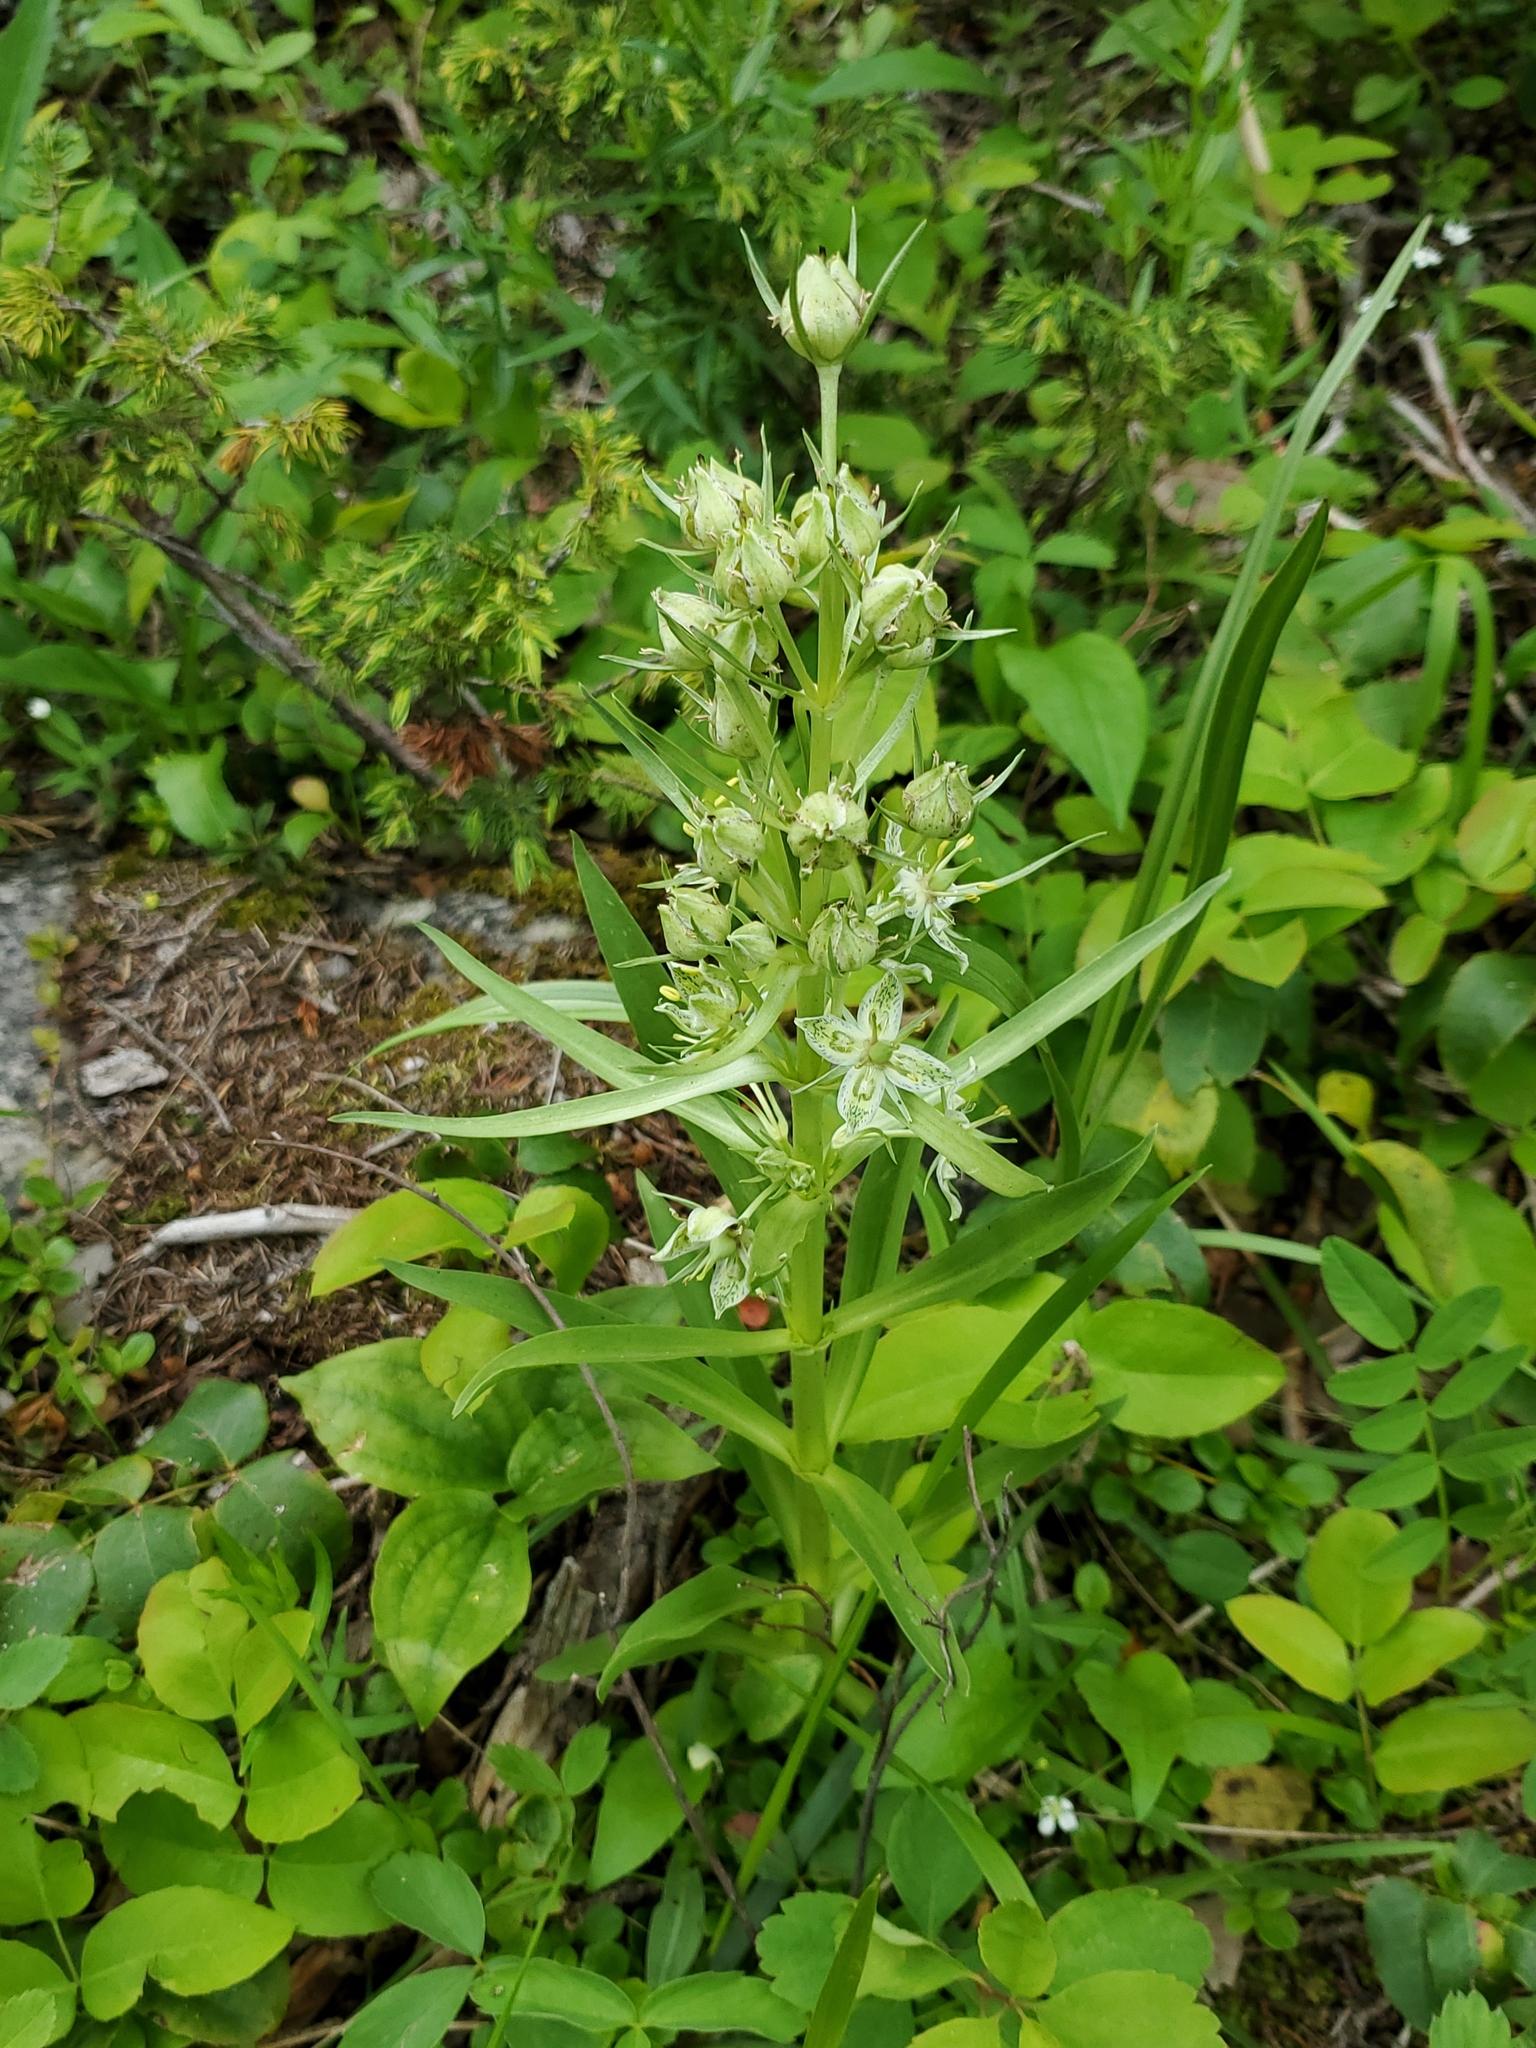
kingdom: Plantae
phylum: Tracheophyta
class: Magnoliopsida
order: Gentianales
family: Gentianaceae
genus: Frasera
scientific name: Frasera speciosa
